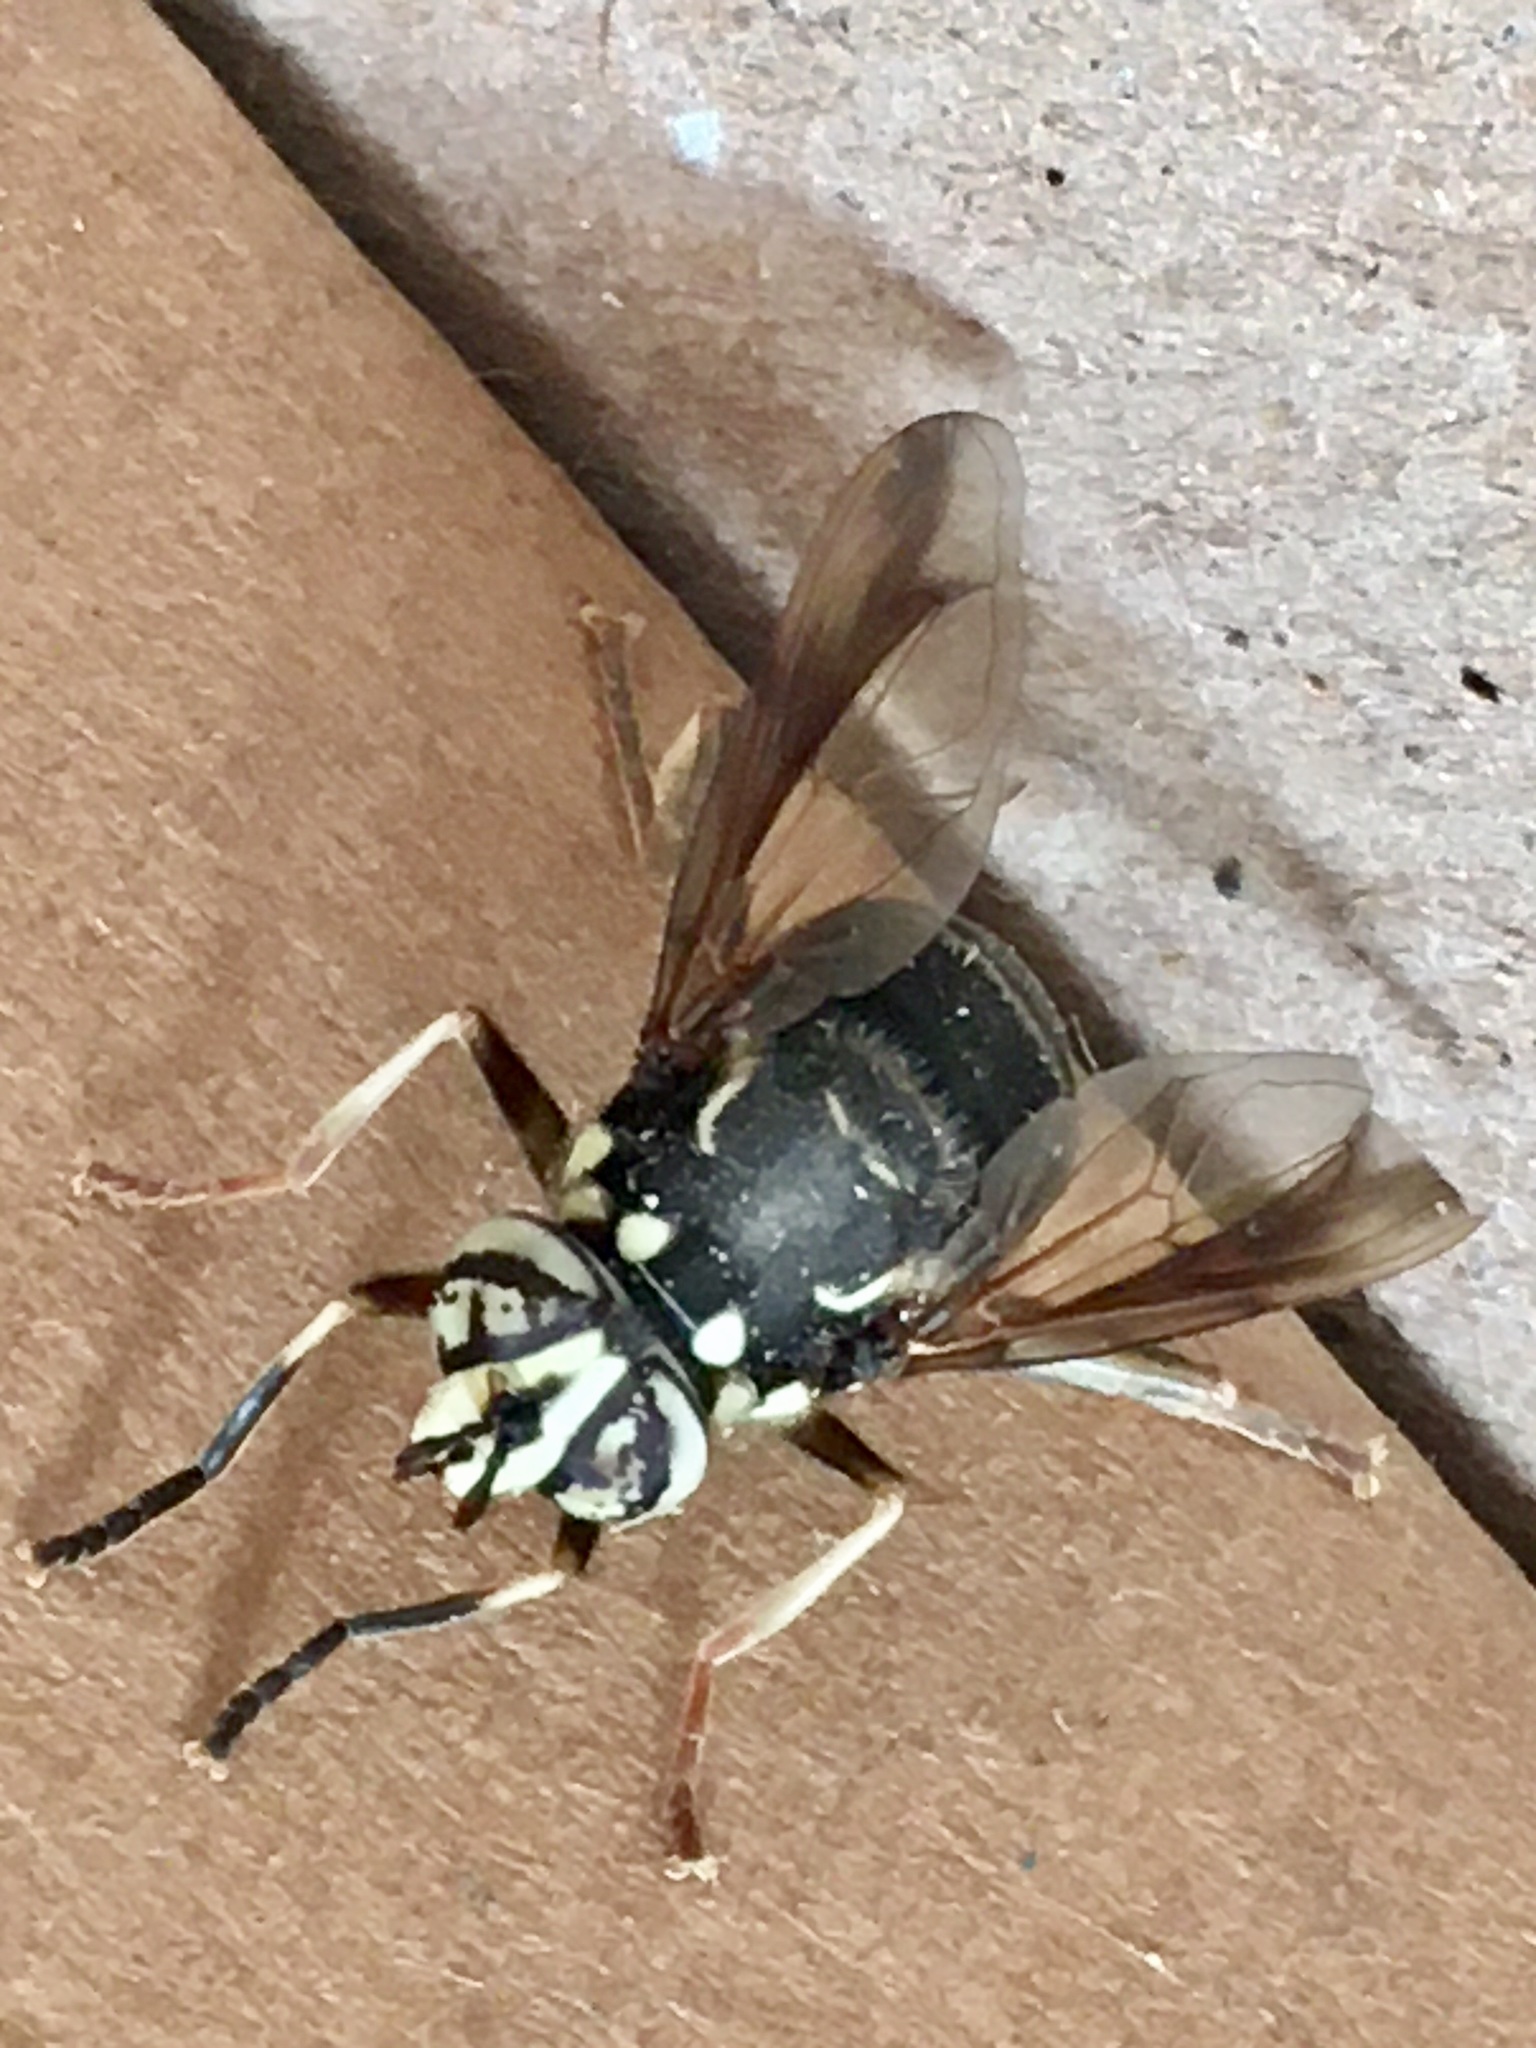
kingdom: Animalia
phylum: Arthropoda
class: Insecta
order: Diptera
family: Syrphidae
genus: Spilomyia
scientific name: Spilomyia fusca
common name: Bald-faced hornet fly
